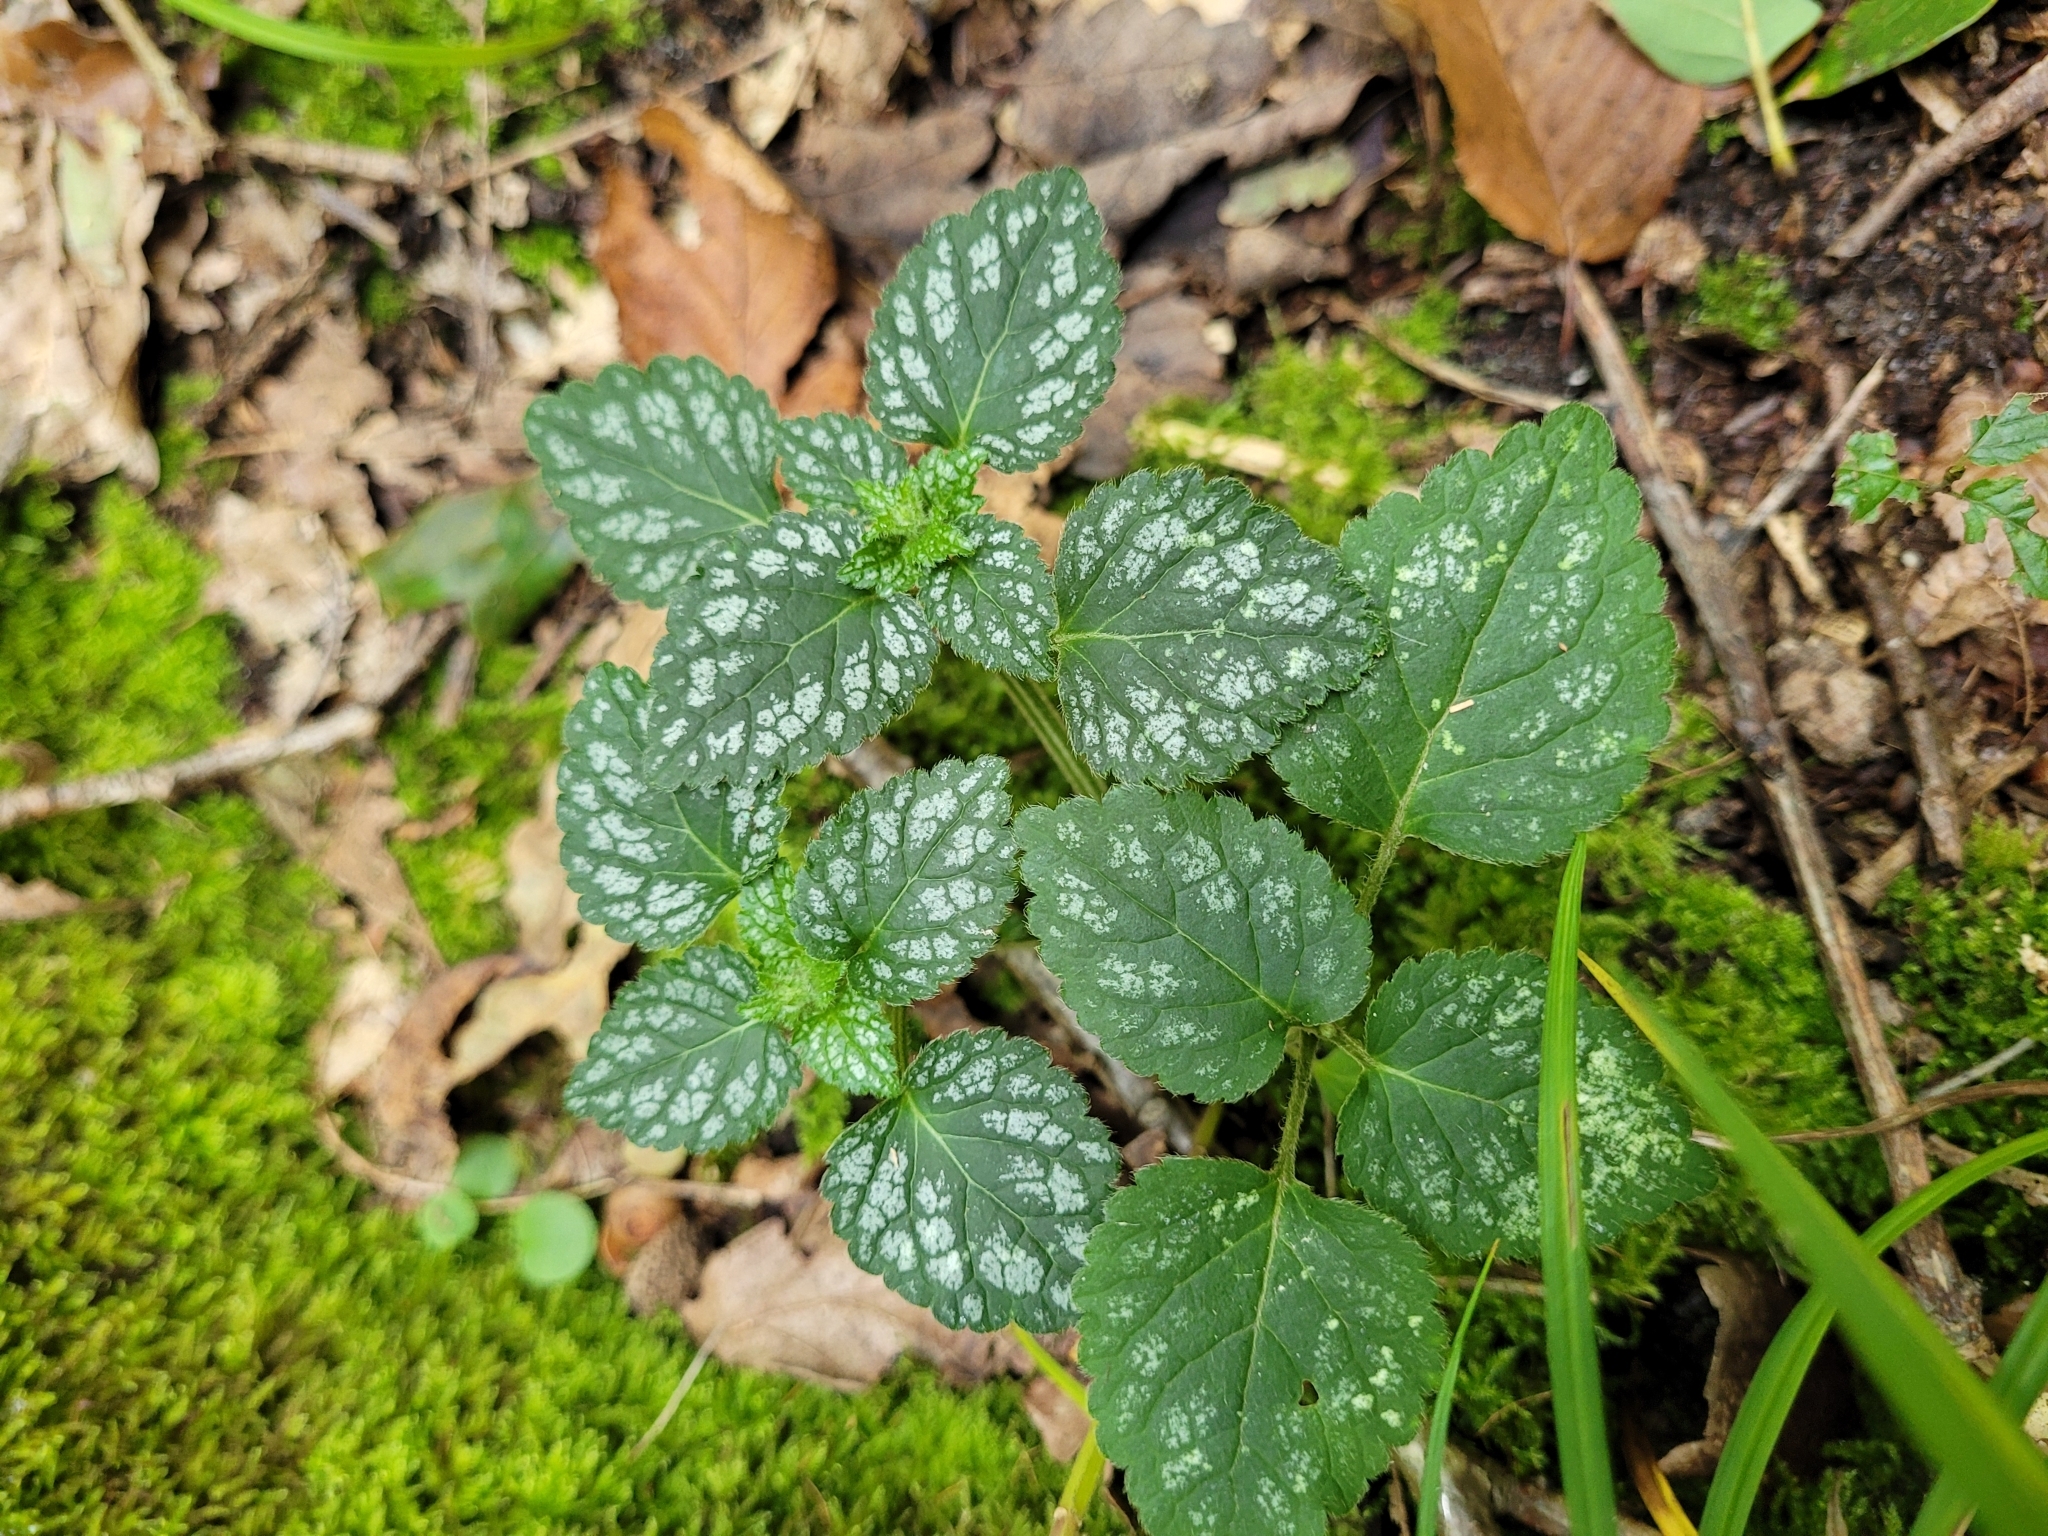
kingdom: Plantae
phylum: Tracheophyta
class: Magnoliopsida
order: Lamiales
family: Lamiaceae
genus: Lamium
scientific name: Lamium galeobdolon
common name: Yellow archangel
